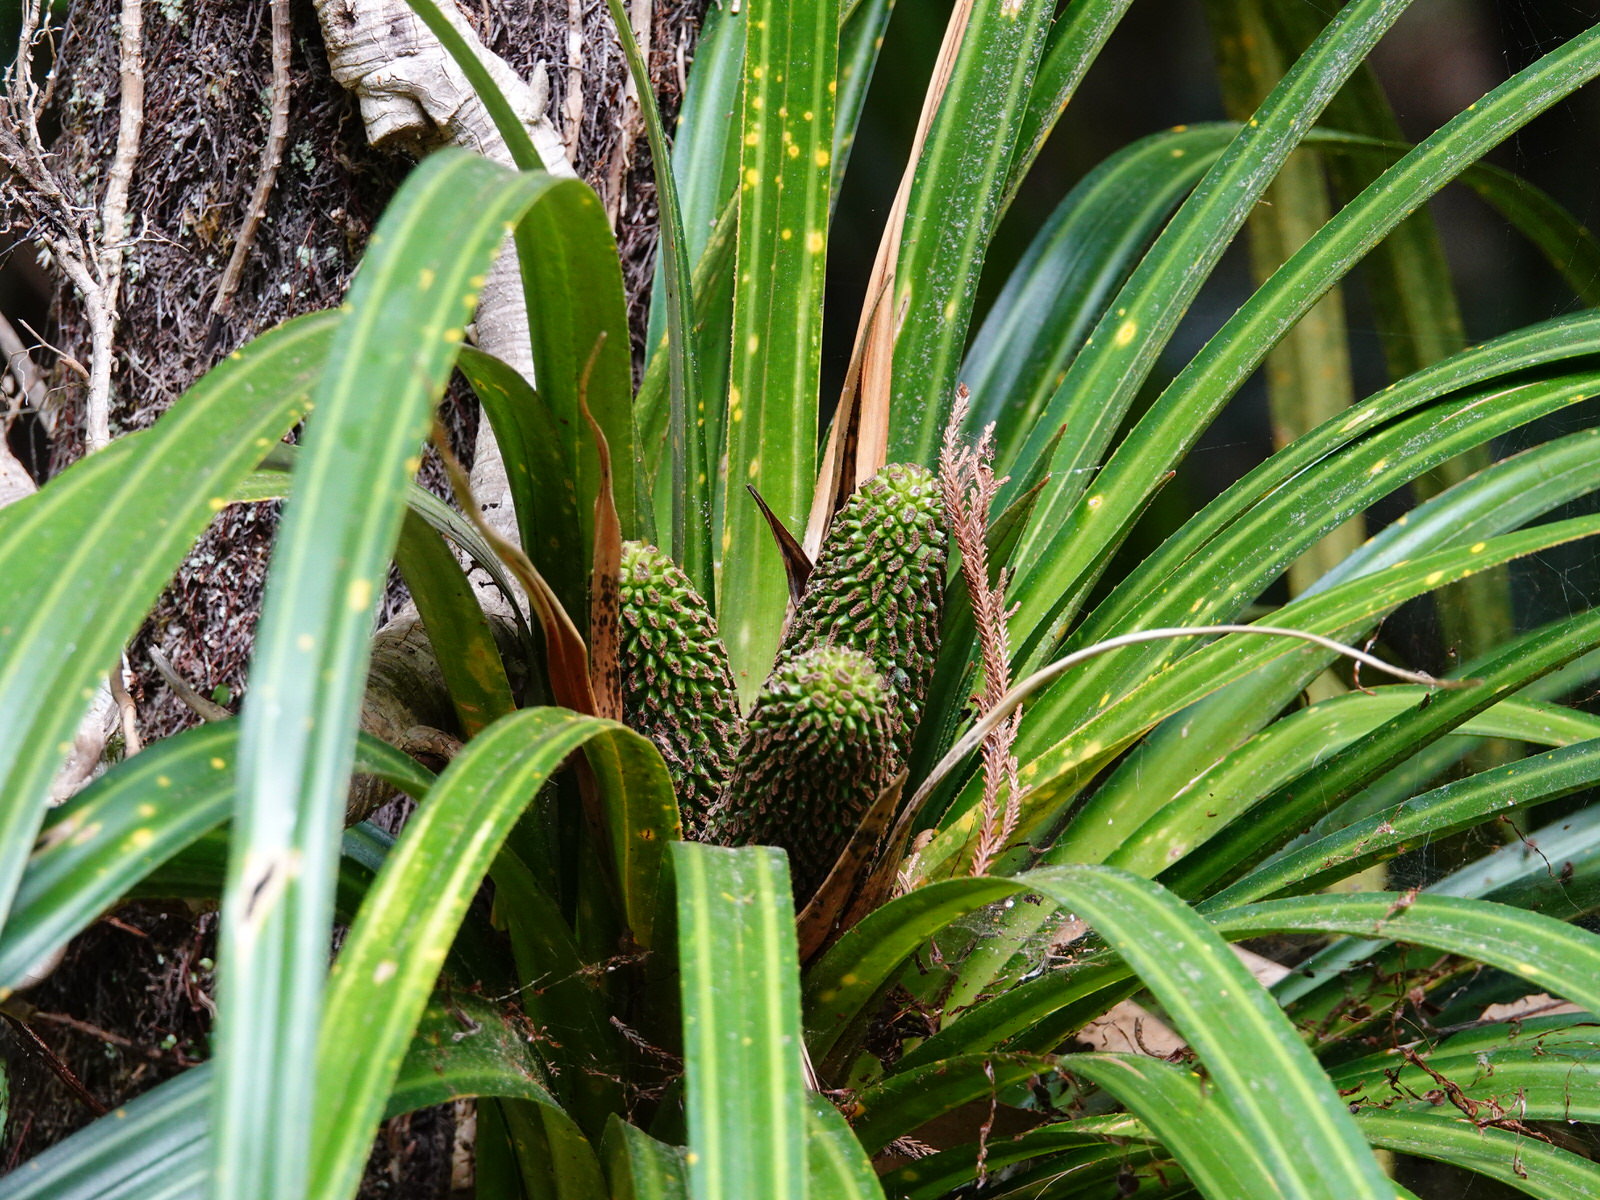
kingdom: Plantae
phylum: Tracheophyta
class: Liliopsida
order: Pandanales
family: Pandanaceae
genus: Freycinetia
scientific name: Freycinetia banksii
